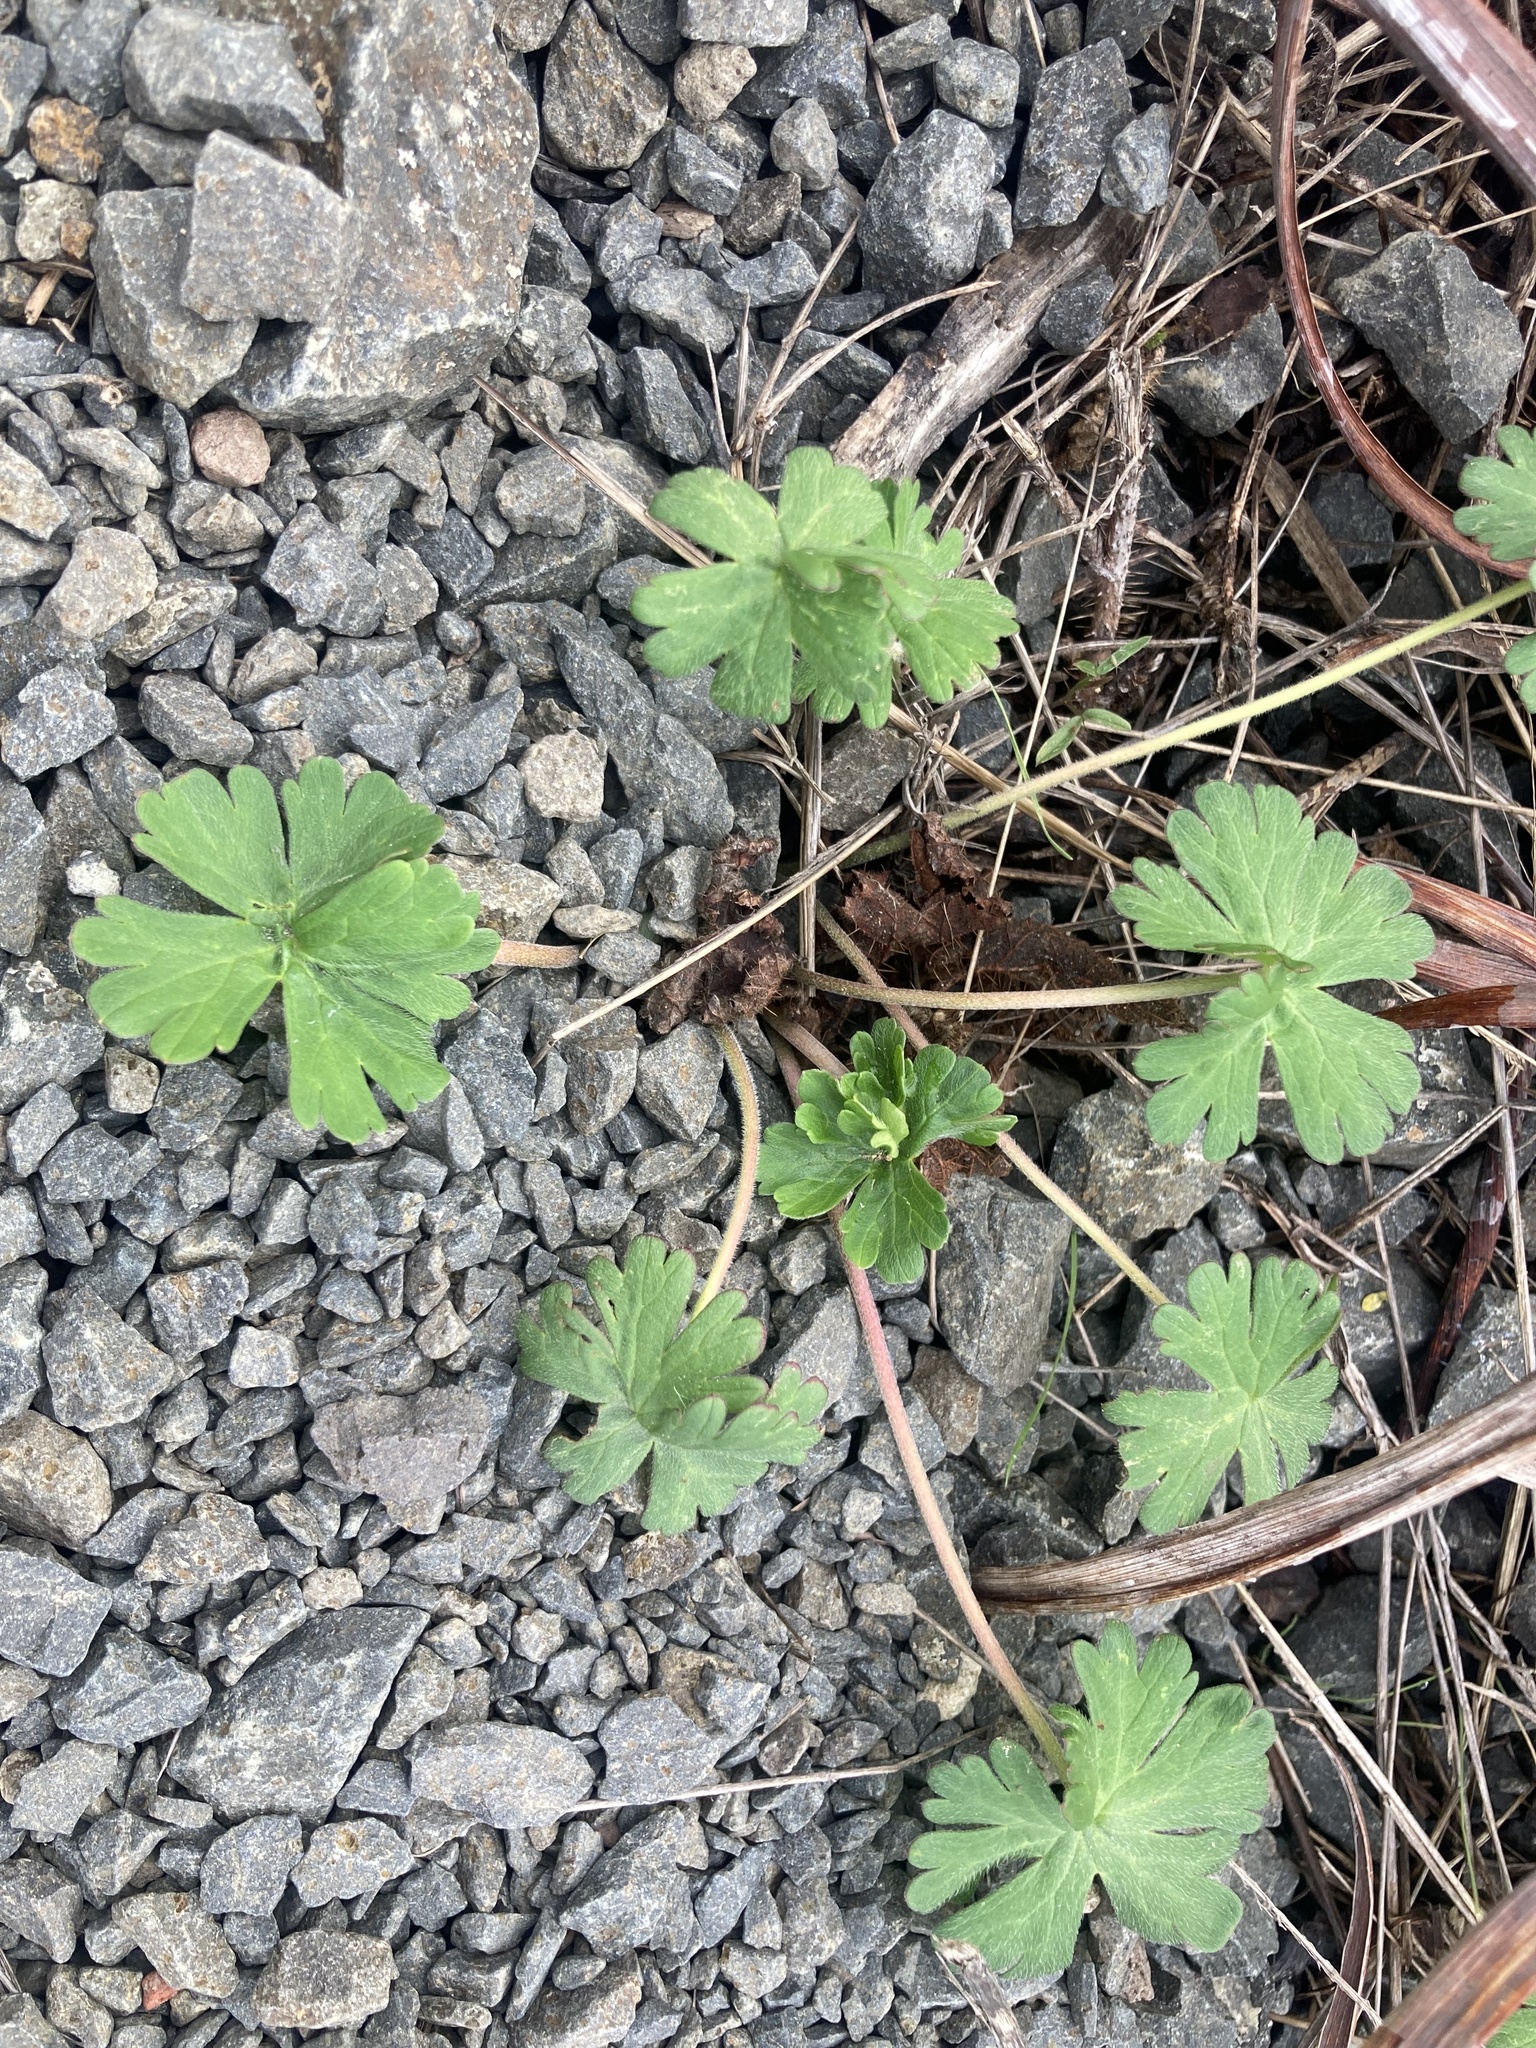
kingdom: Plantae
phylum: Tracheophyta
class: Magnoliopsida
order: Geraniales
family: Geraniaceae
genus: Geranium
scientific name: Geranium
